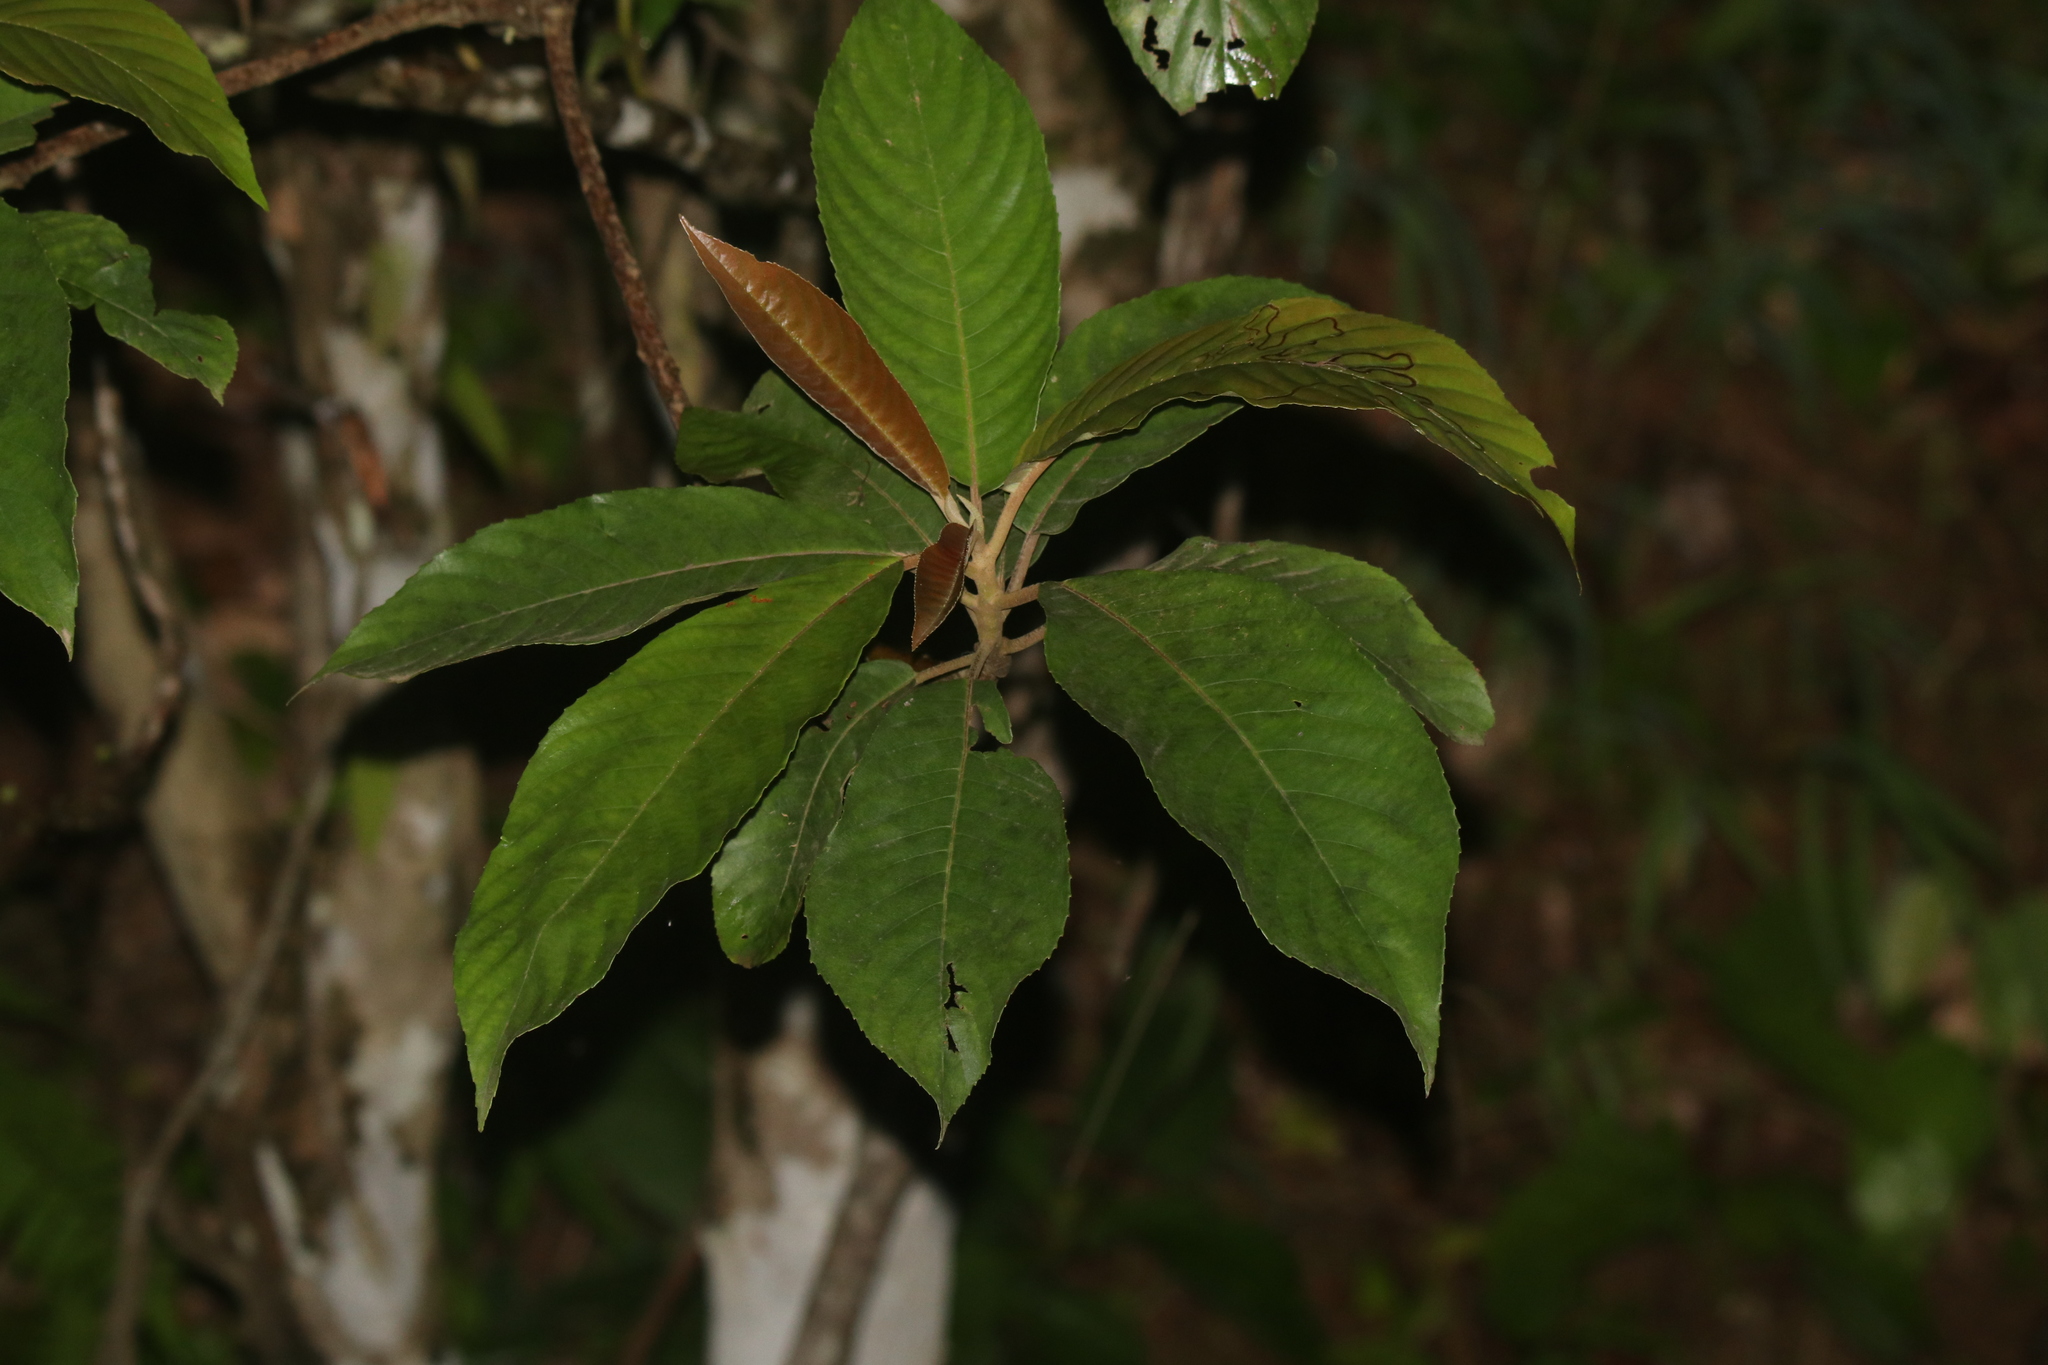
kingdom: Plantae
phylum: Tracheophyta
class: Magnoliopsida
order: Ericales
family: Actinidiaceae
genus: Saurauia
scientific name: Saurauia napaulensis
